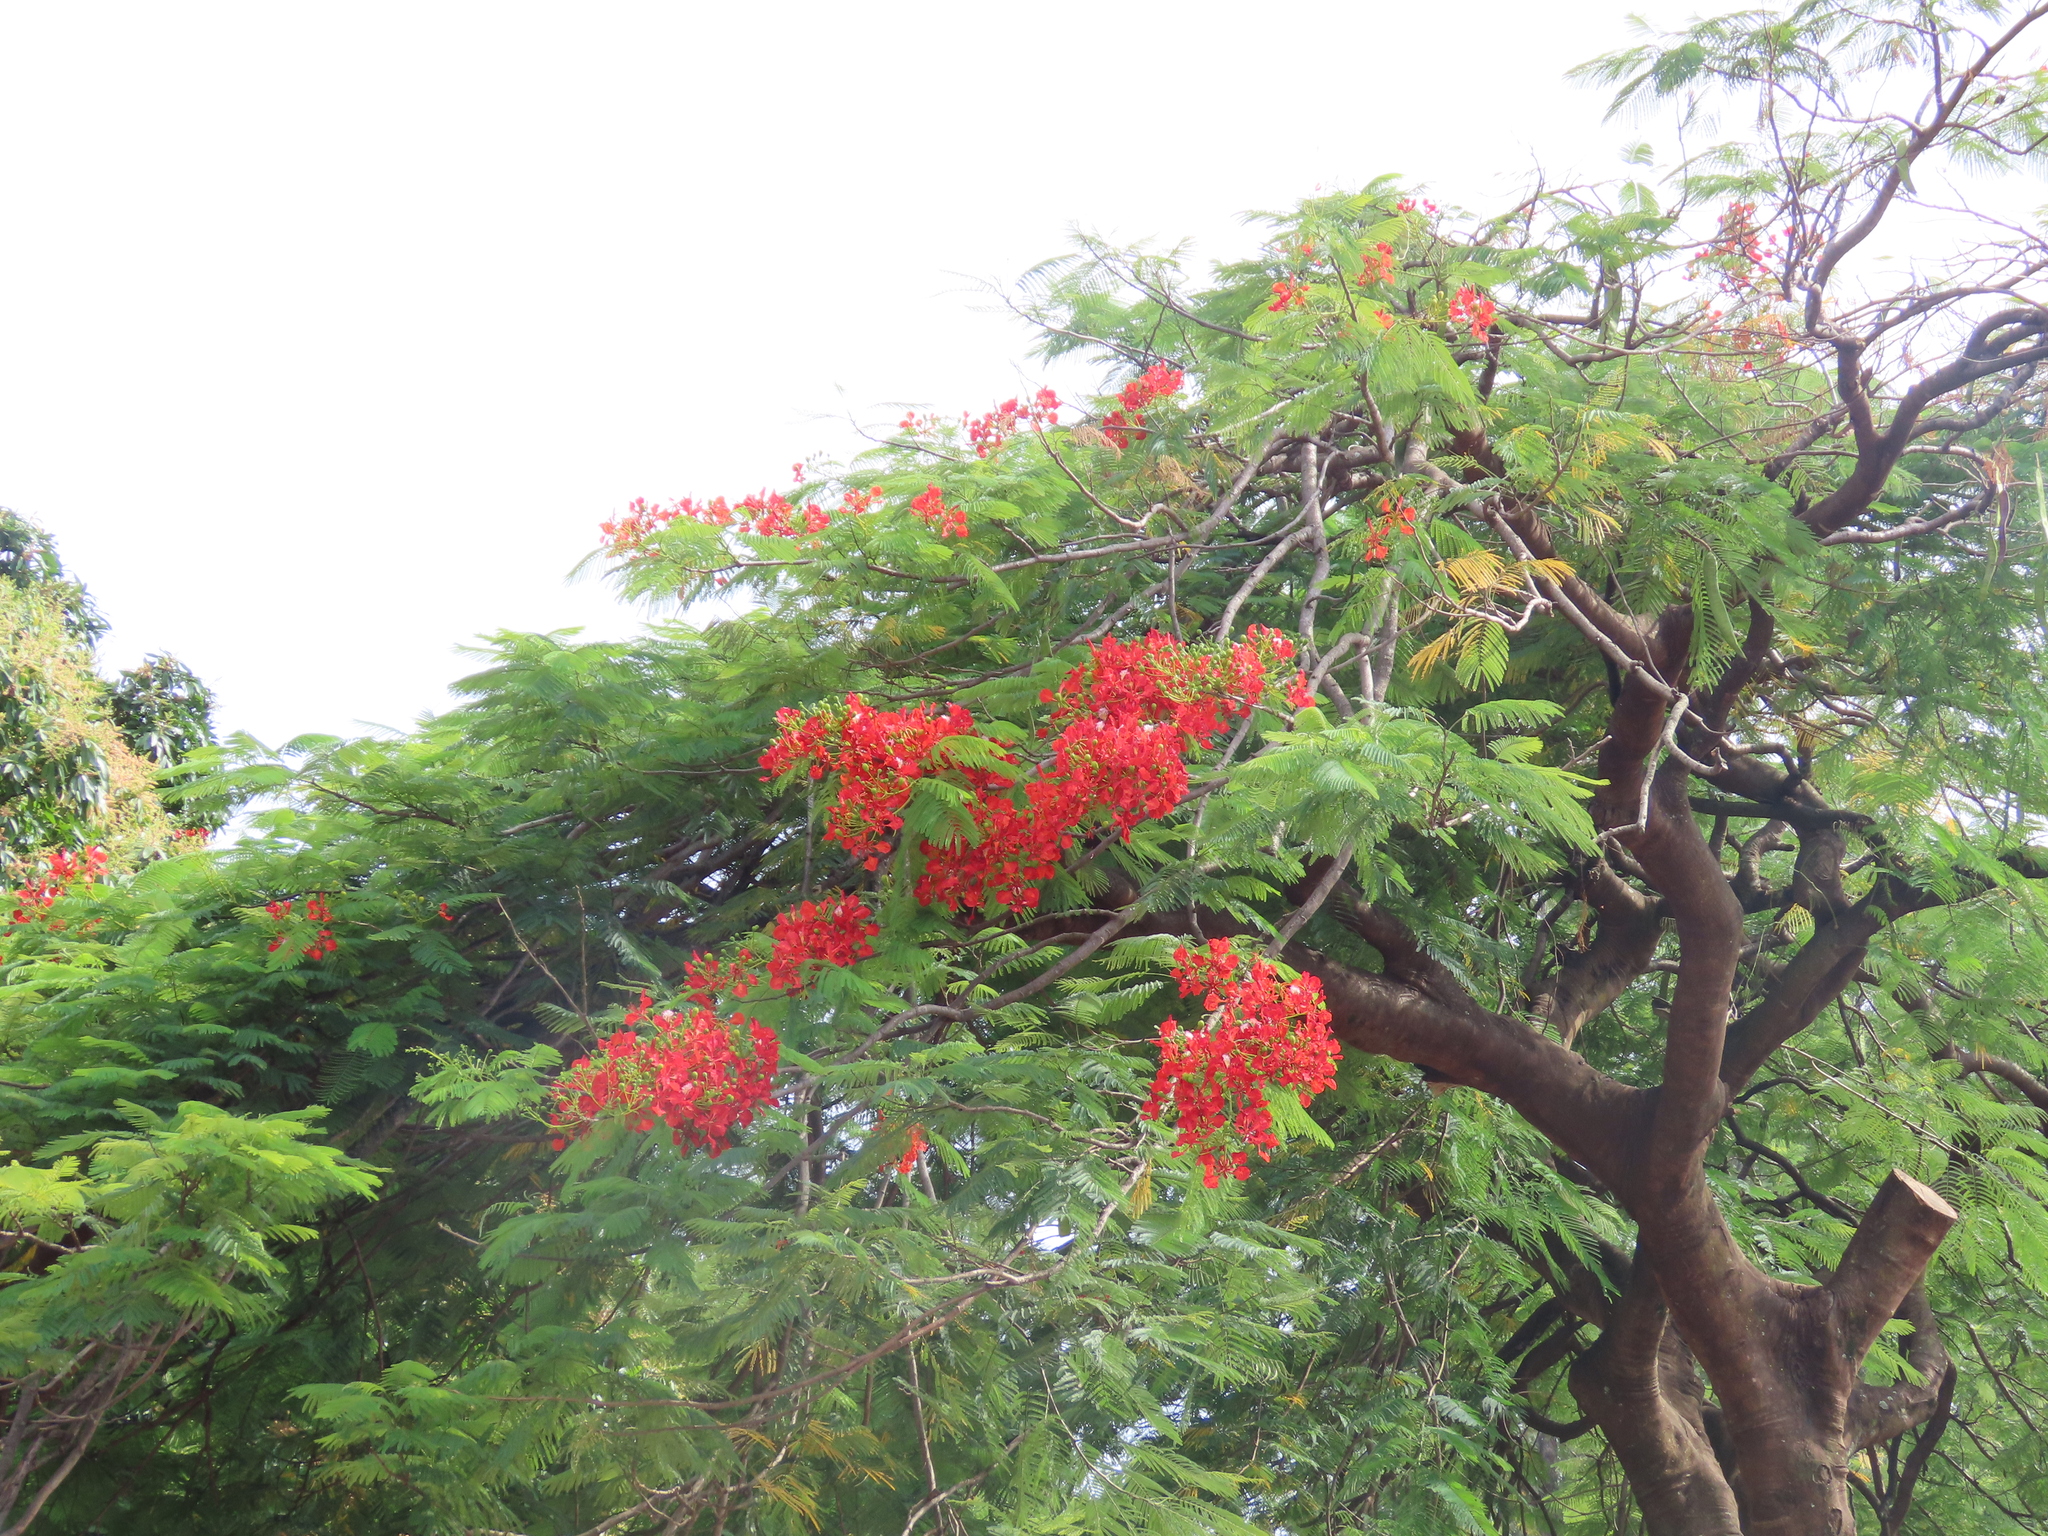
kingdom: Plantae
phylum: Tracheophyta
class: Magnoliopsida
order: Fabales
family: Fabaceae
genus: Delonix
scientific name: Delonix regia
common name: Royal poinciana
